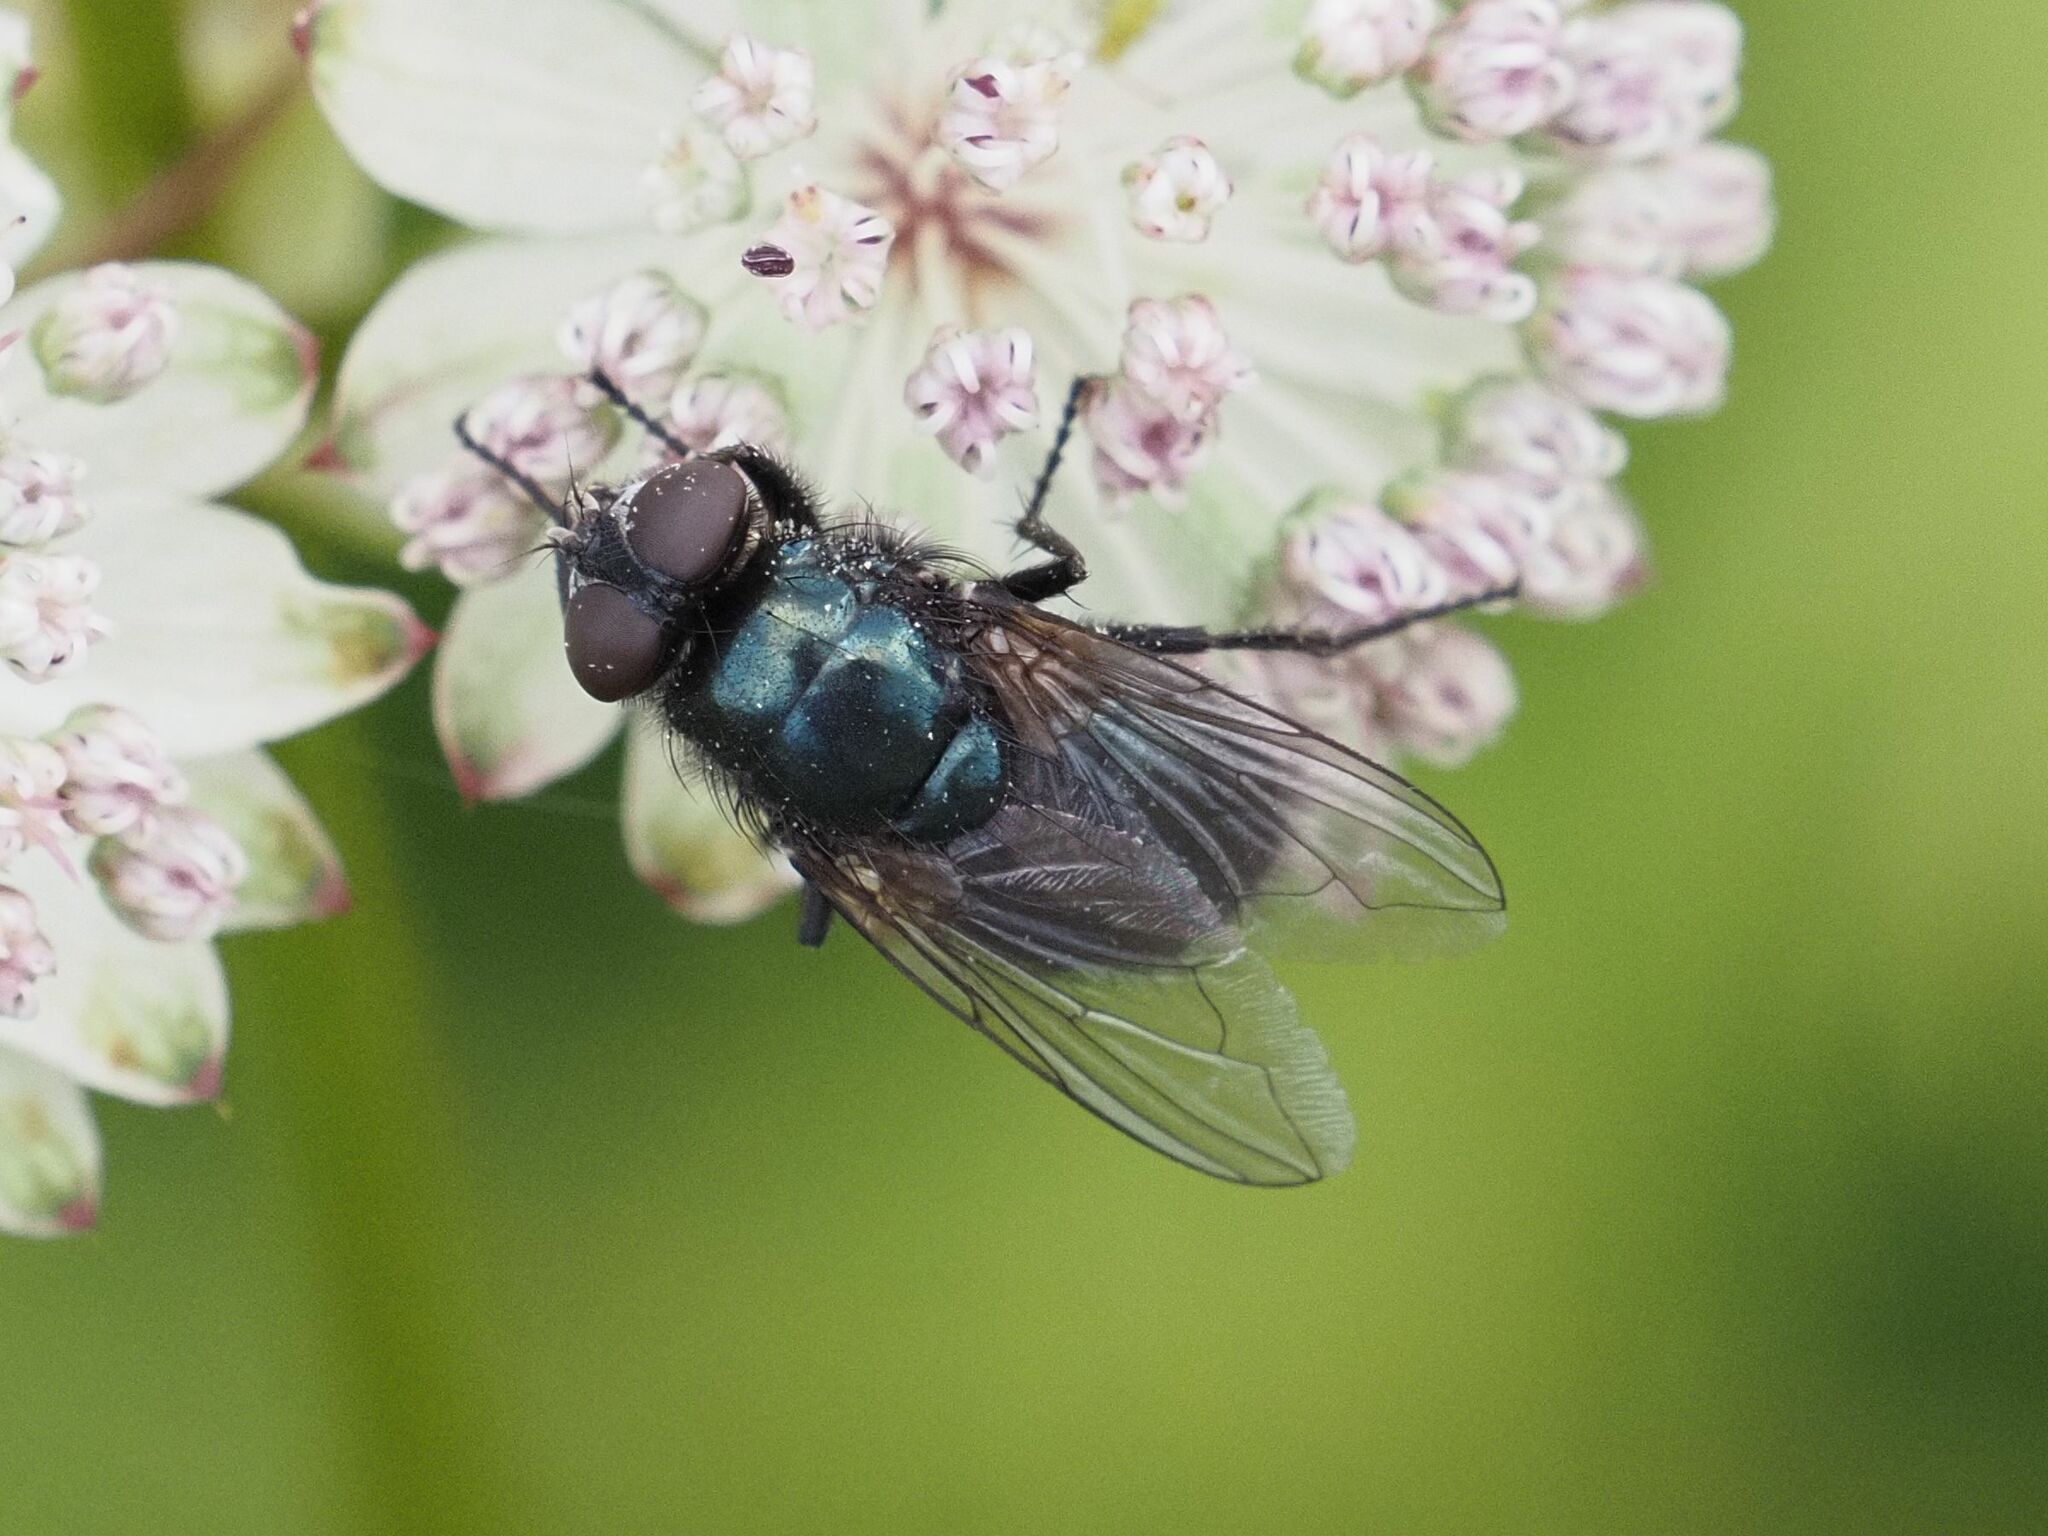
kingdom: Animalia
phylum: Arthropoda
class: Insecta
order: Diptera
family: Calliphoridae
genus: Protophormia
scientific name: Protophormia terraenovae
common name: Blackbottle
